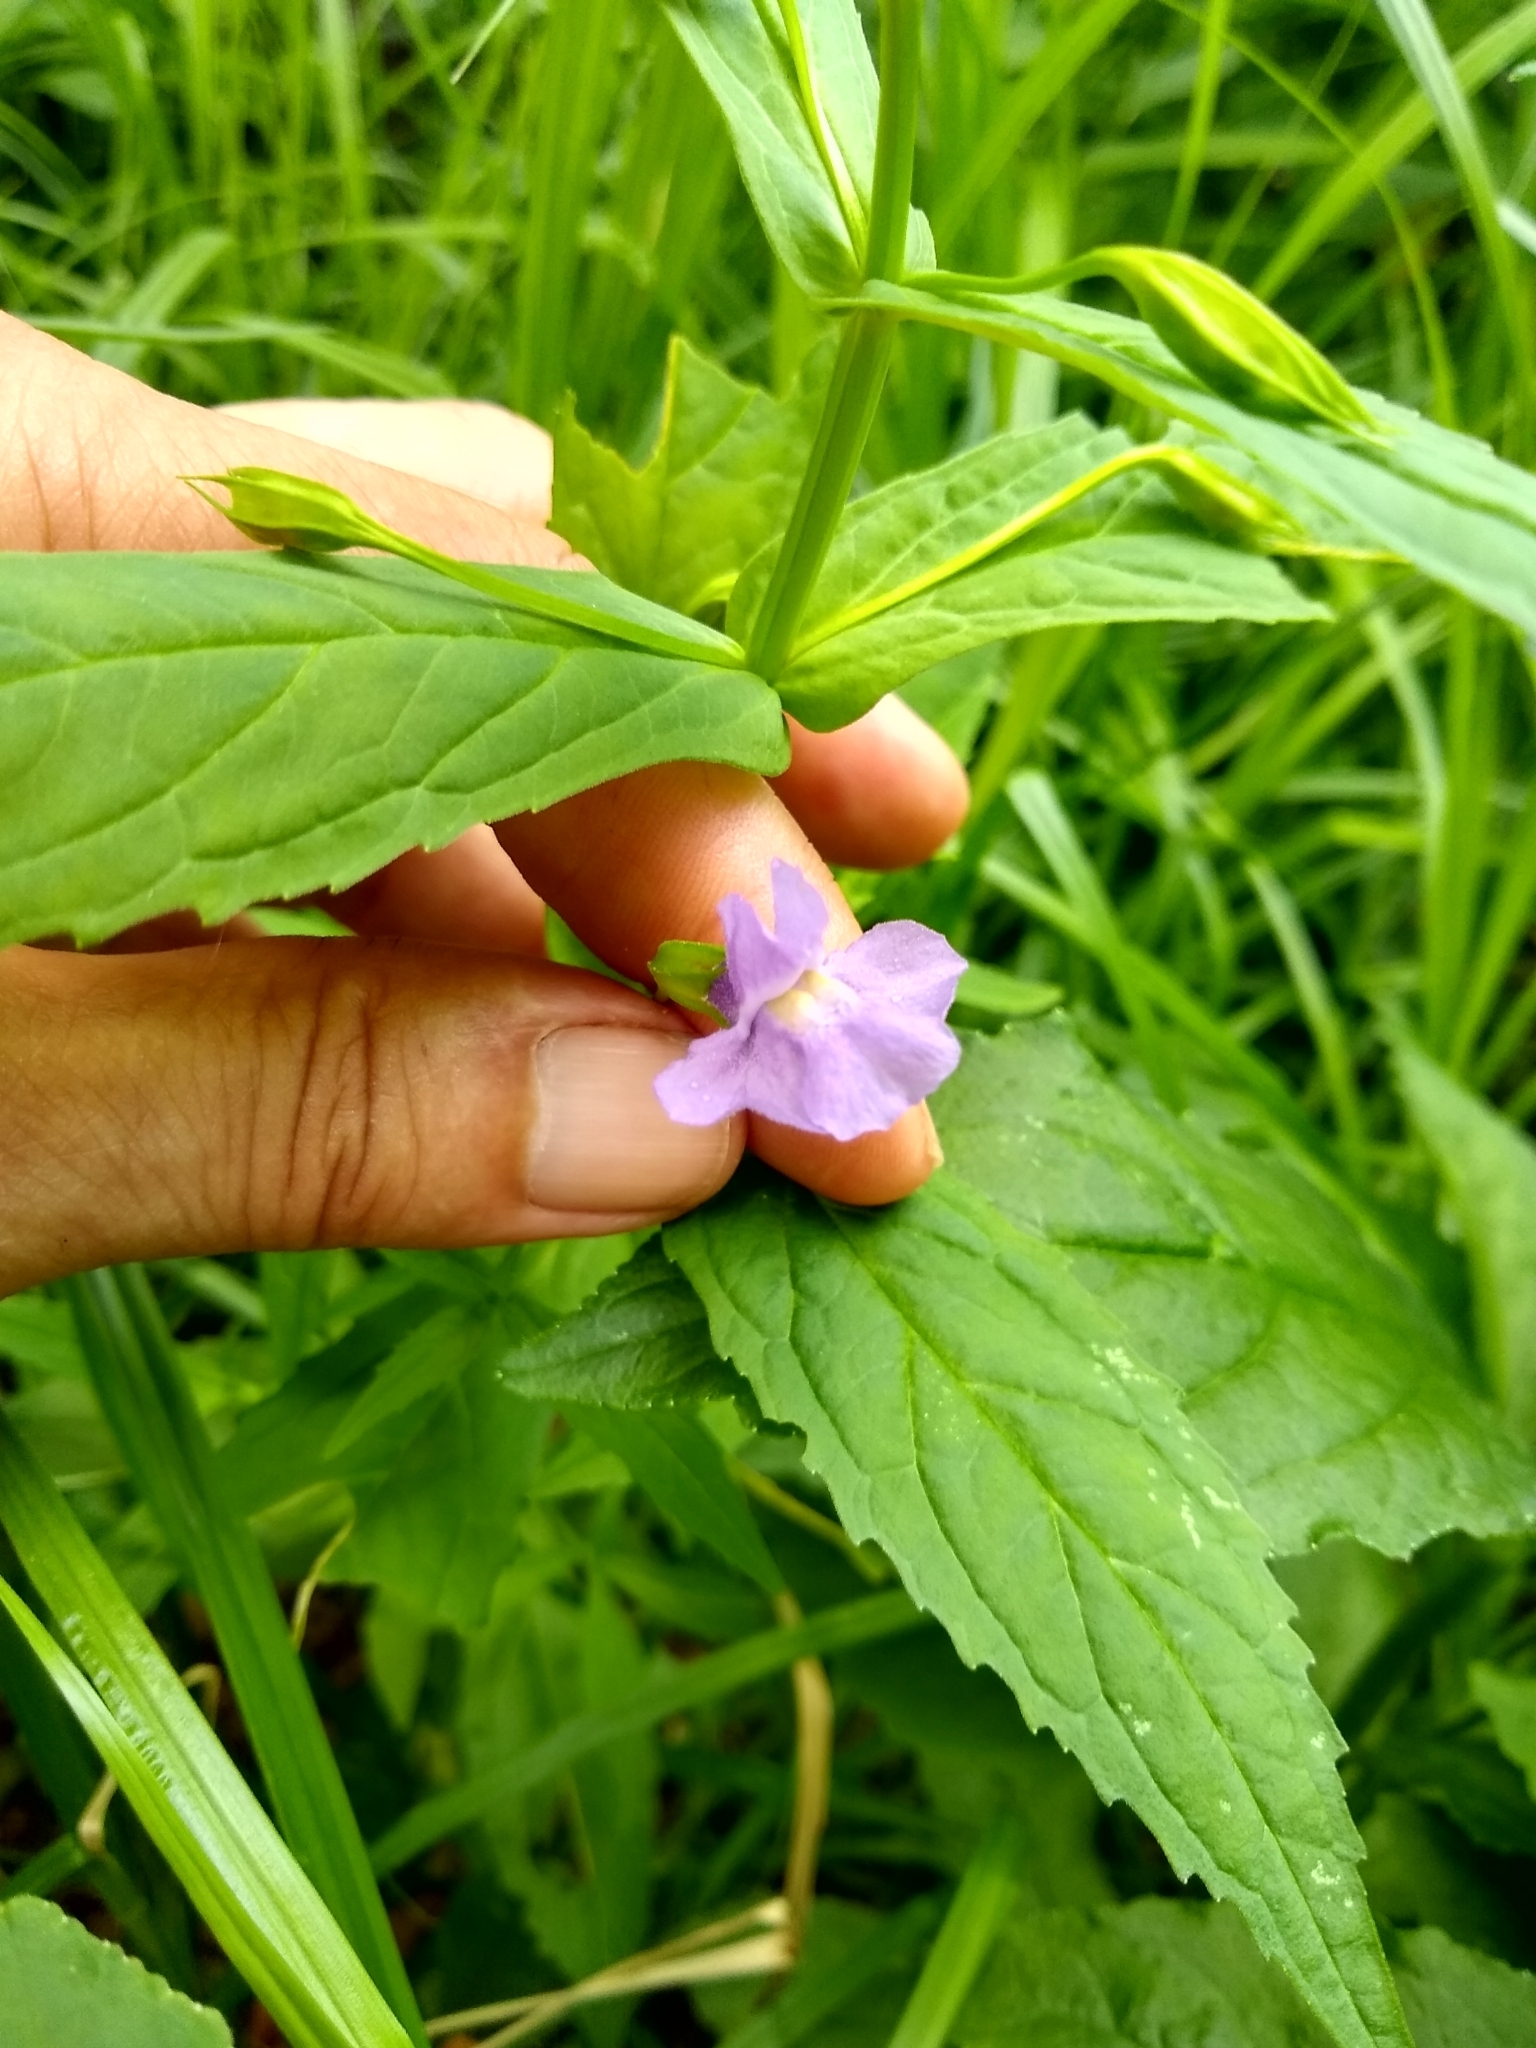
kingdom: Plantae
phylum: Tracheophyta
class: Magnoliopsida
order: Lamiales
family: Phrymaceae
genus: Mimulus
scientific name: Mimulus ringens
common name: Allegheny monkeyflower
